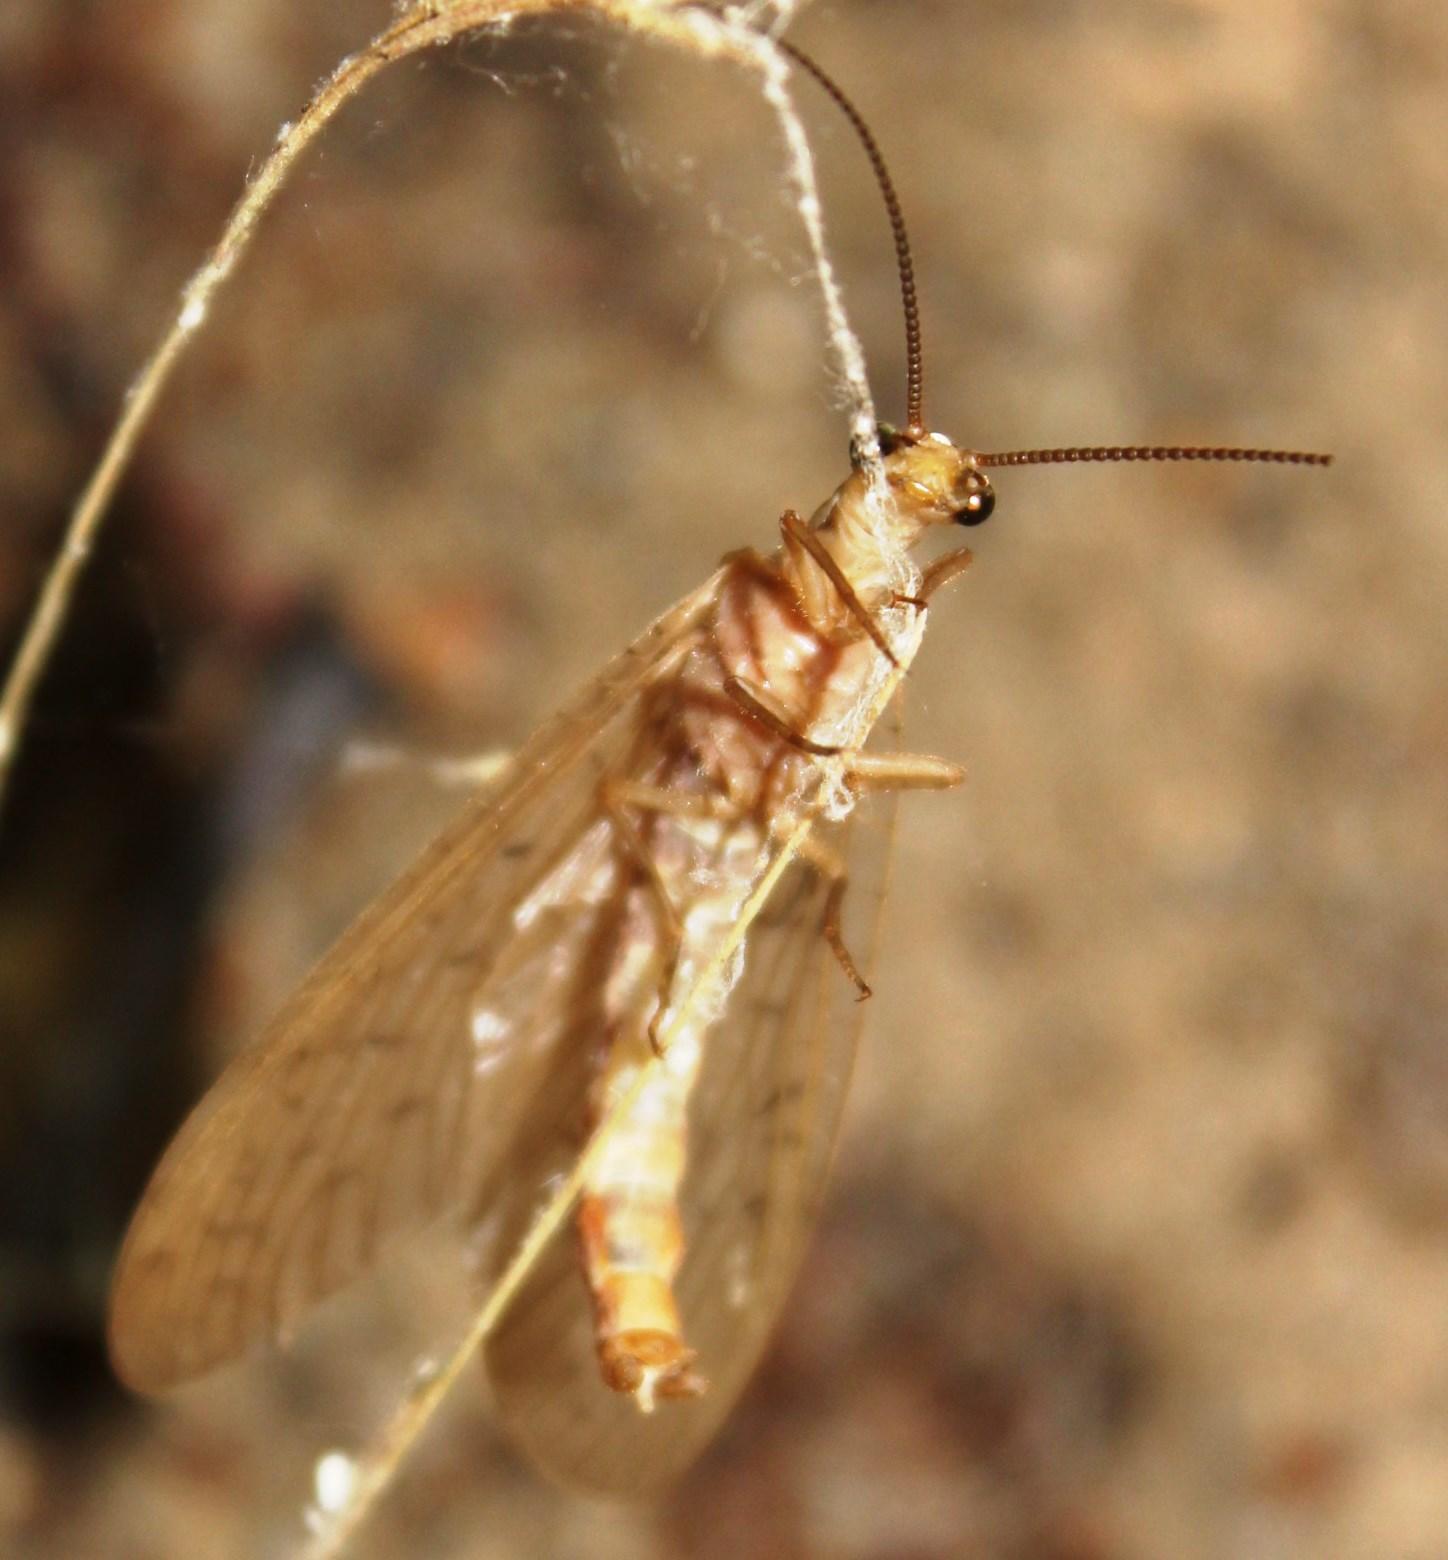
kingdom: Animalia
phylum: Arthropoda
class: Insecta
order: Megaloptera
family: Corydalidae
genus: Chloroniella
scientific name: Chloroniella peringueyi
